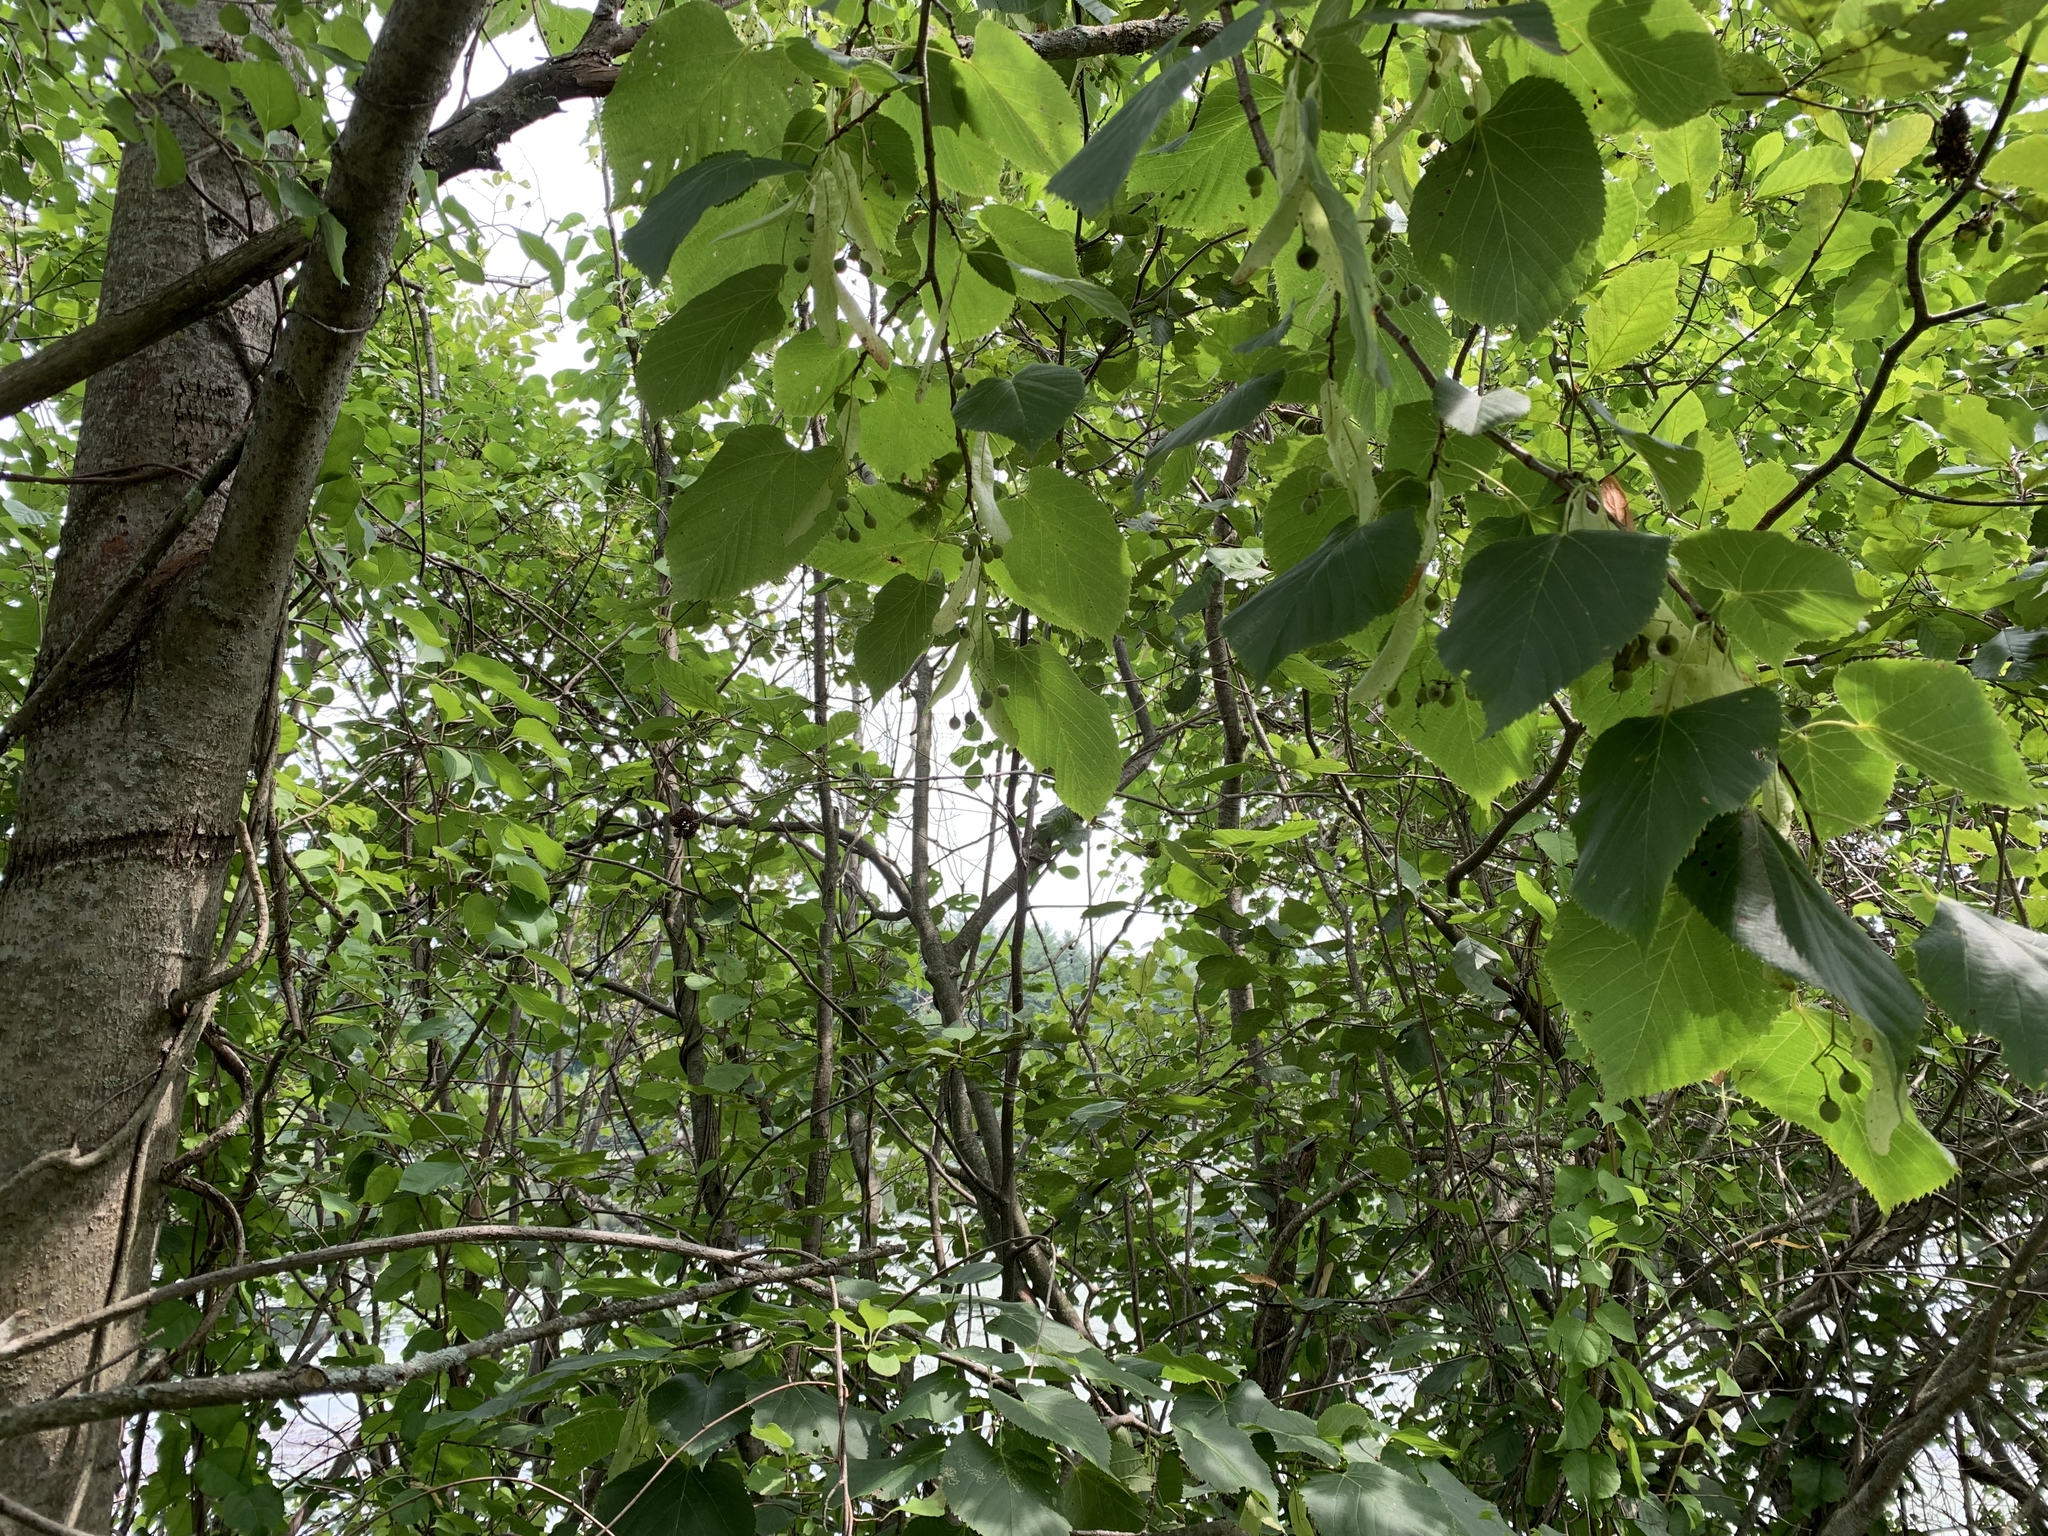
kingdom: Plantae
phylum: Tracheophyta
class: Magnoliopsida
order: Malvales
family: Malvaceae
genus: Tilia
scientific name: Tilia americana
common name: Basswood
